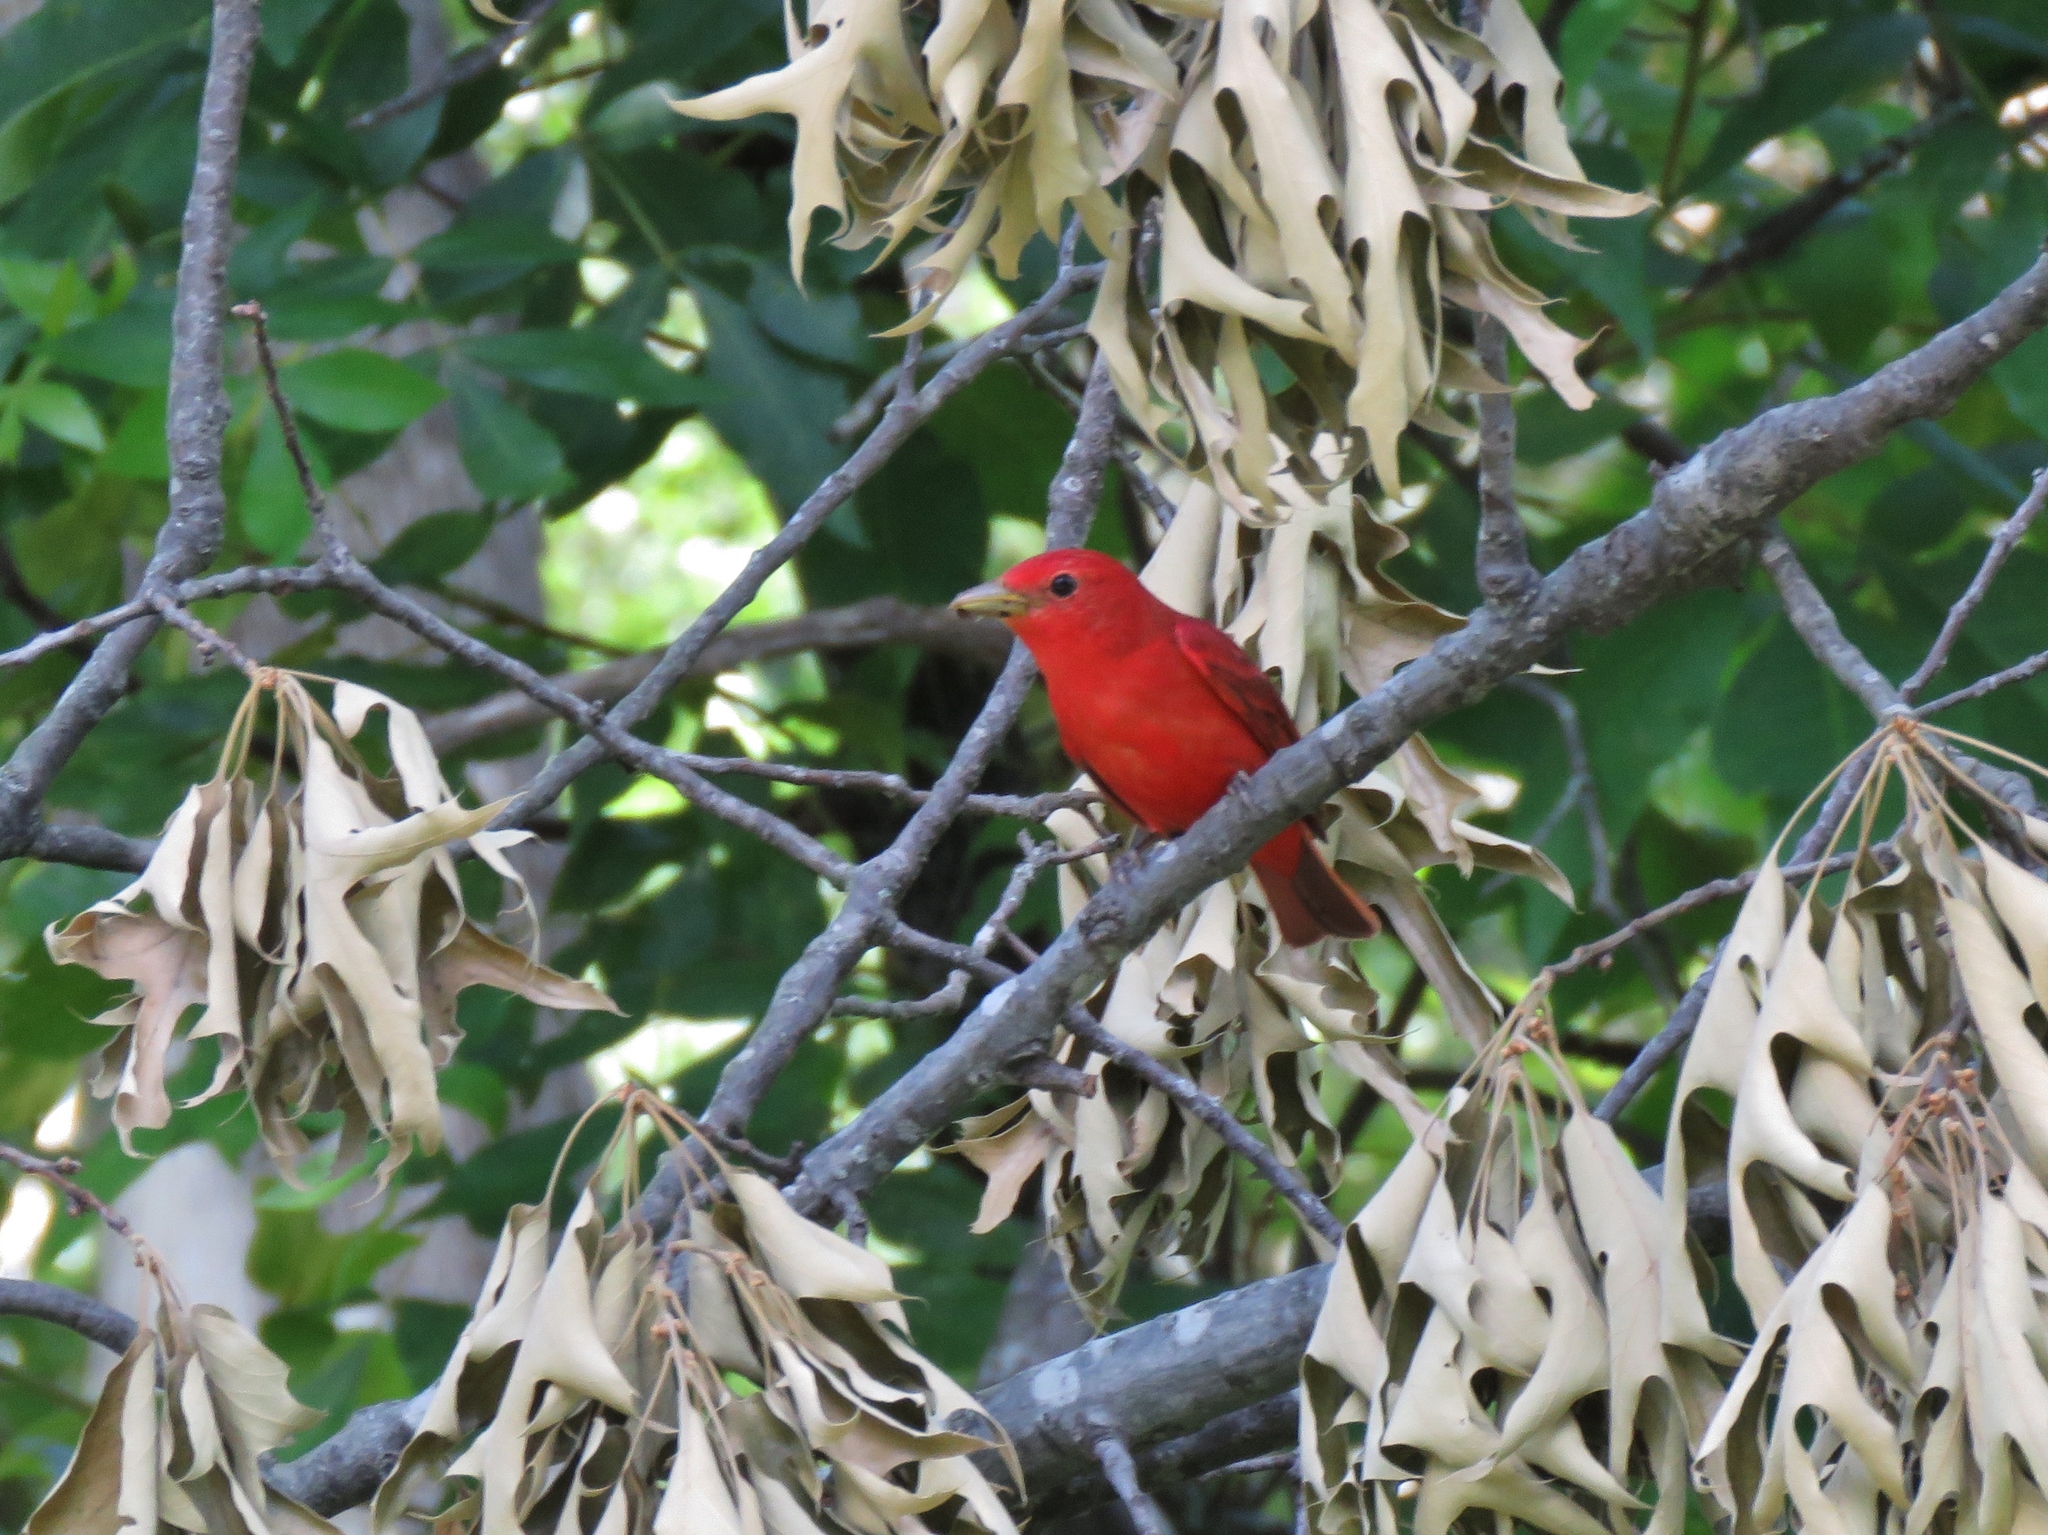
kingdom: Animalia
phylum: Chordata
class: Aves
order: Passeriformes
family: Cardinalidae
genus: Piranga
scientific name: Piranga rubra
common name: Summer tanager
